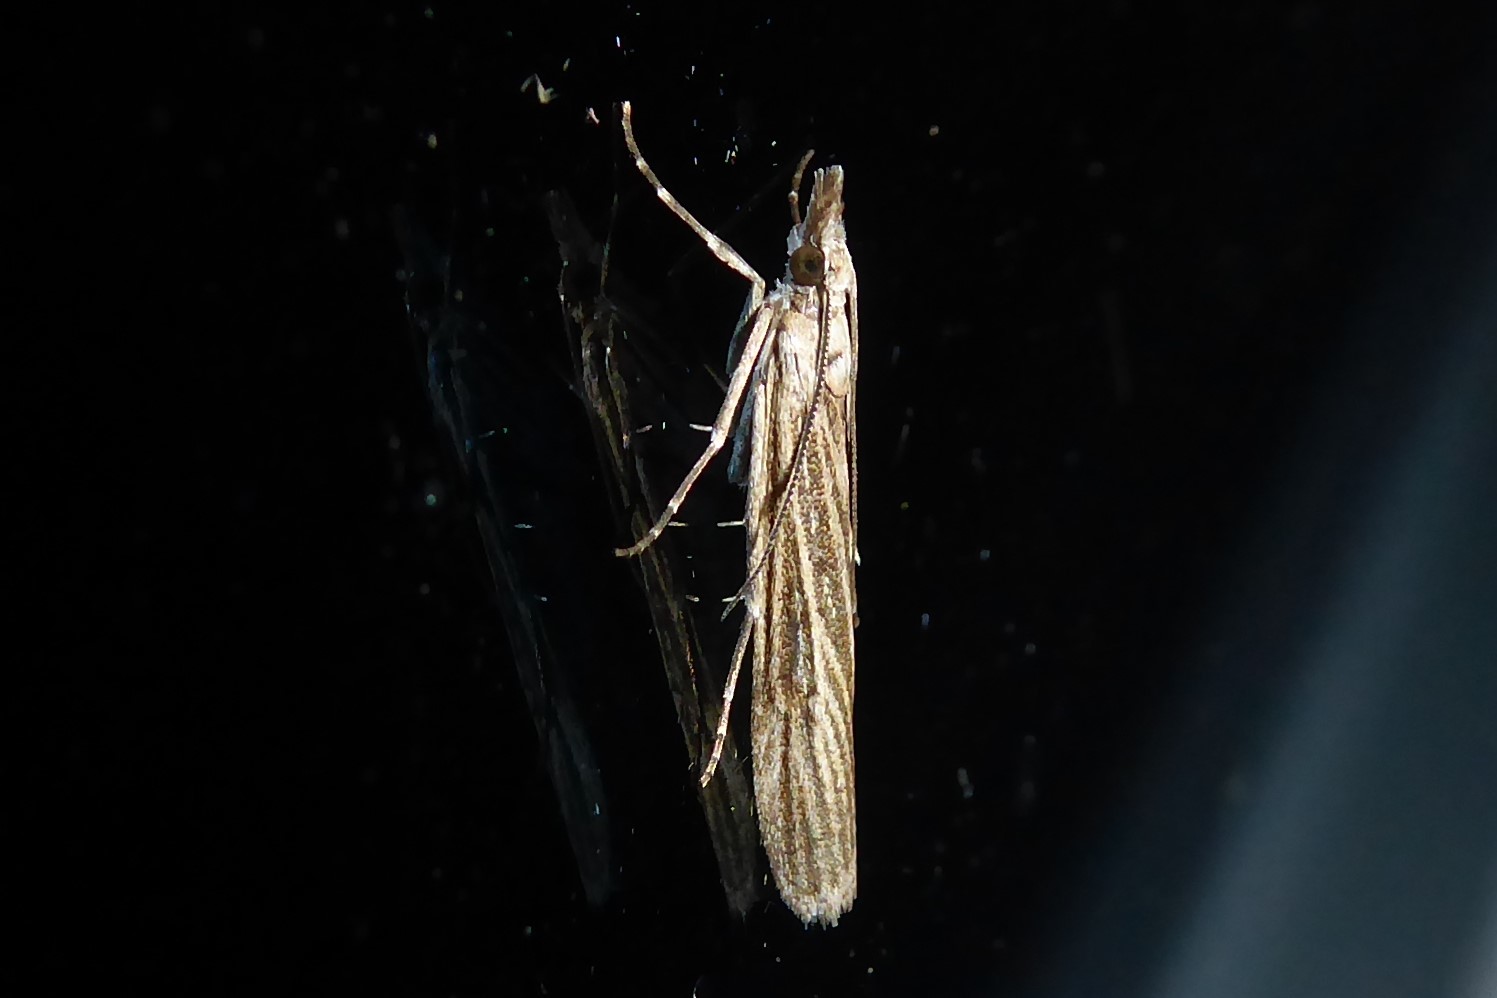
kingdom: Animalia
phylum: Arthropoda
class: Insecta
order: Lepidoptera
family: Crambidae
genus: Eudonia
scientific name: Eudonia atmogramma
